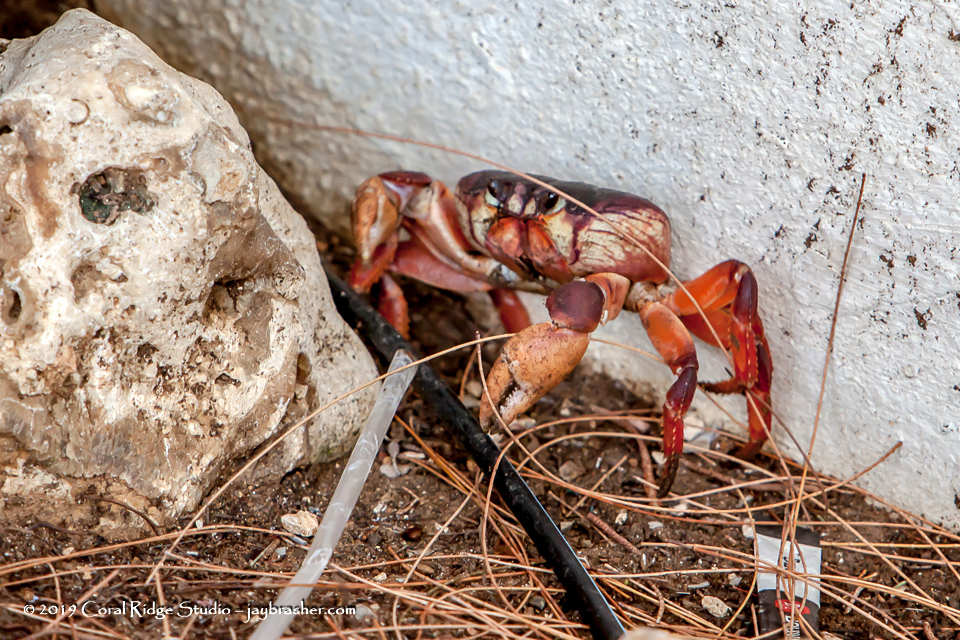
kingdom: Animalia
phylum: Arthropoda
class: Malacostraca
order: Decapoda
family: Gecarcinidae
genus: Gecarcinus
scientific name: Gecarcinus ruricola
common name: Black land crab
